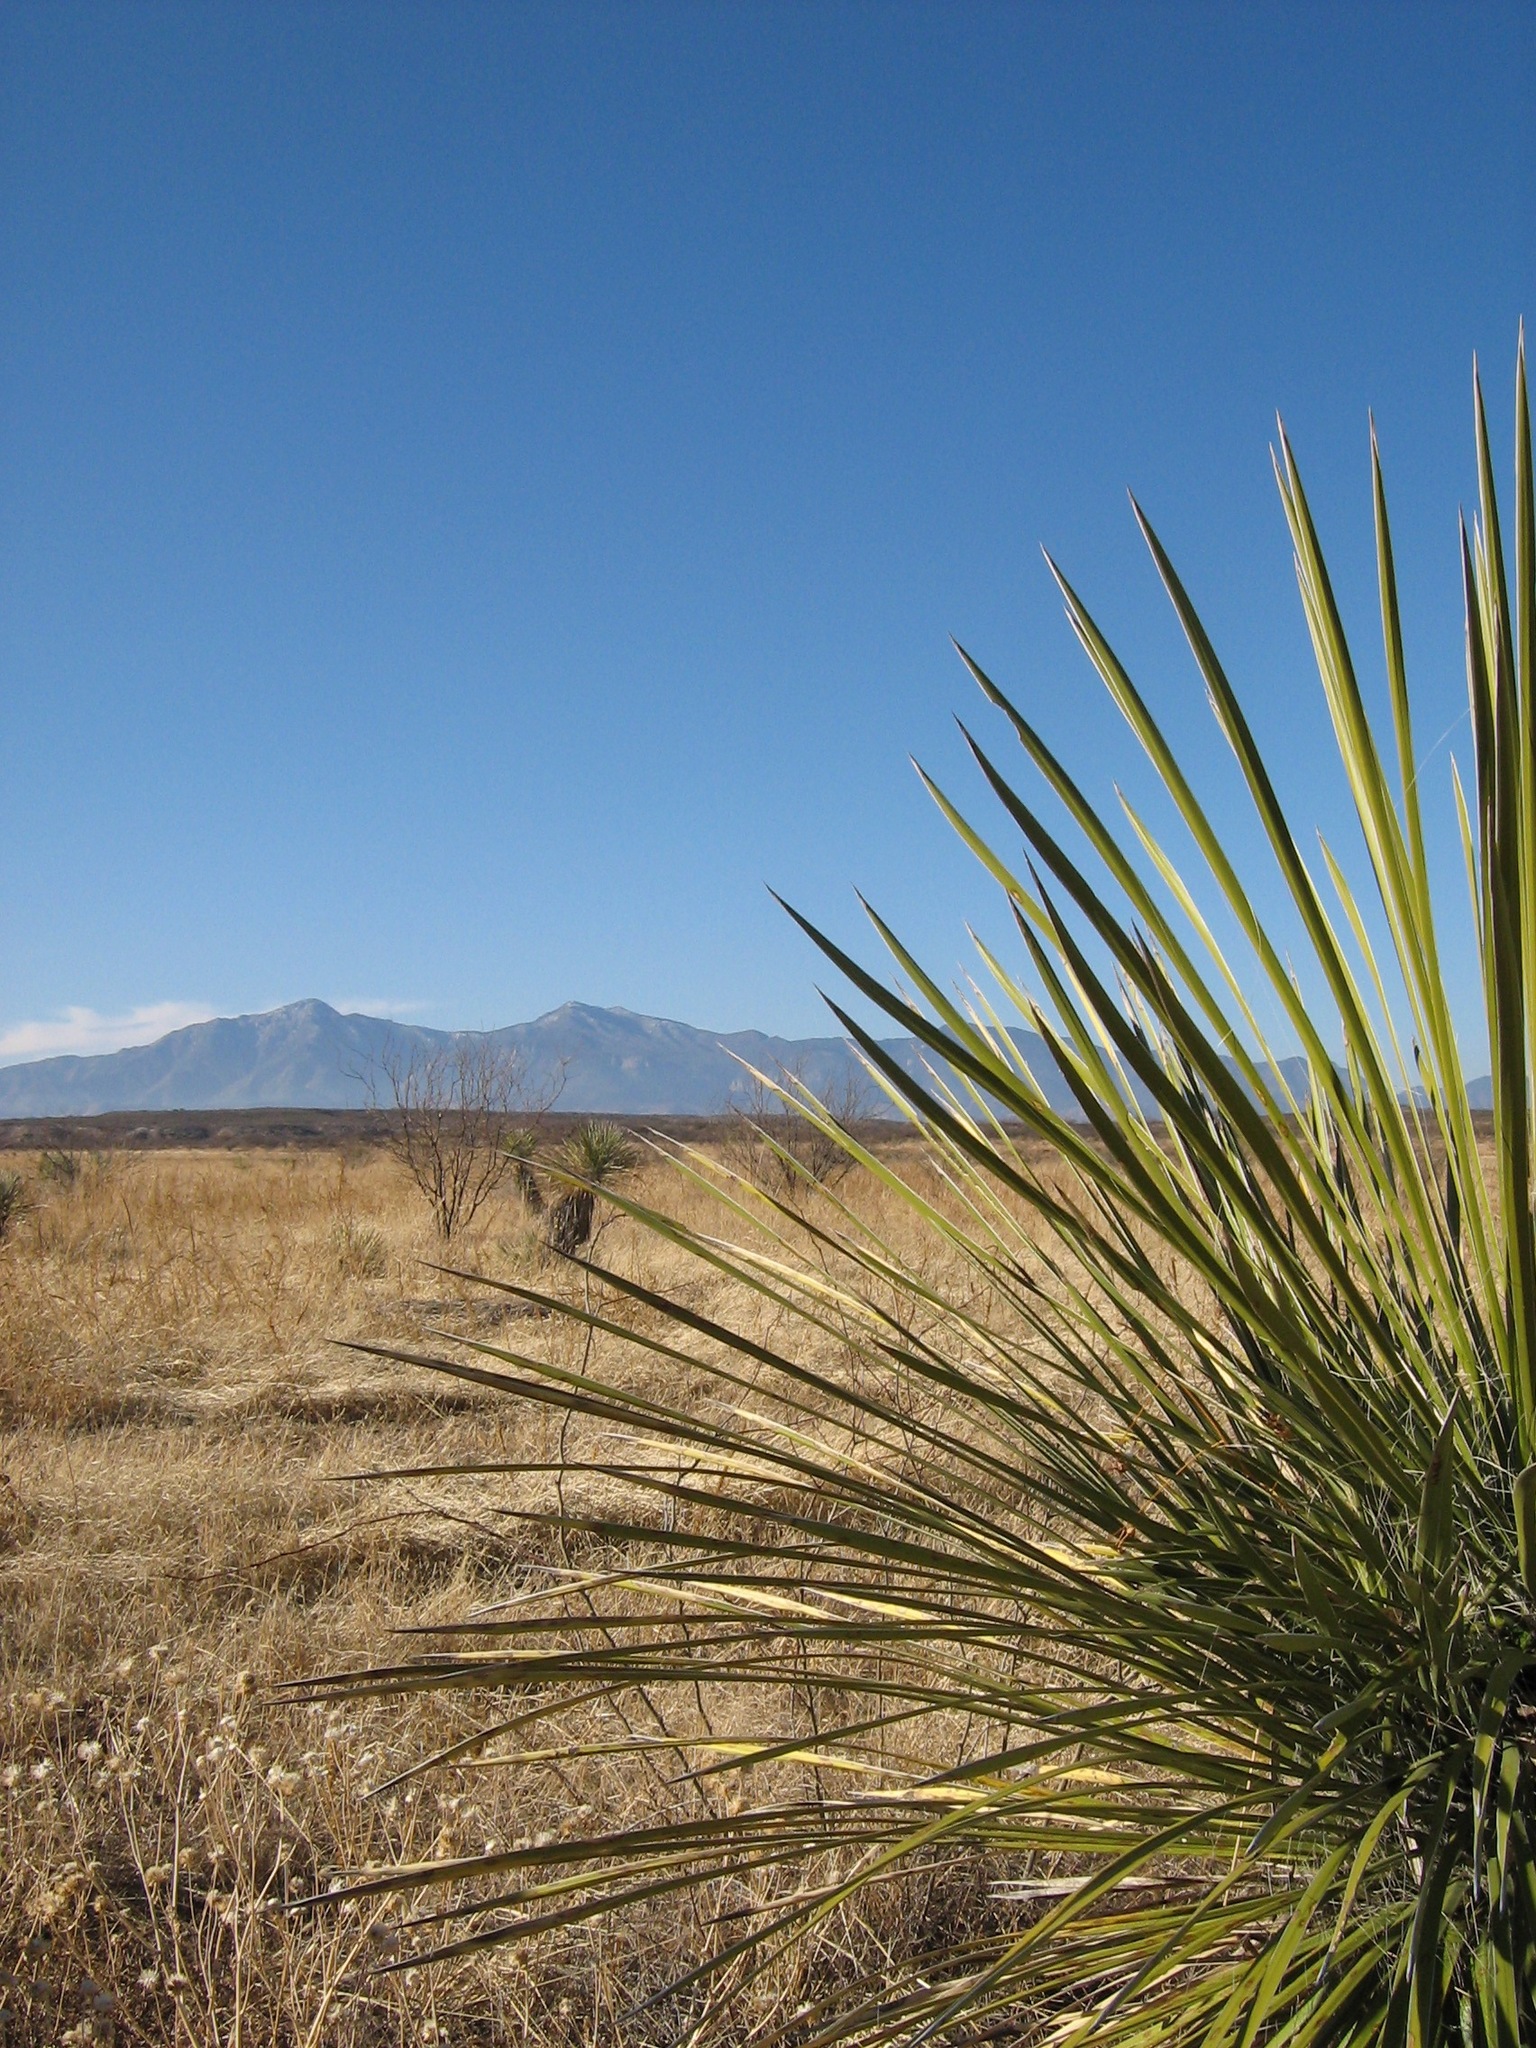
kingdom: Plantae
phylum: Tracheophyta
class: Liliopsida
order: Asparagales
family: Asparagaceae
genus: Yucca
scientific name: Yucca elata
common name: Palmella
